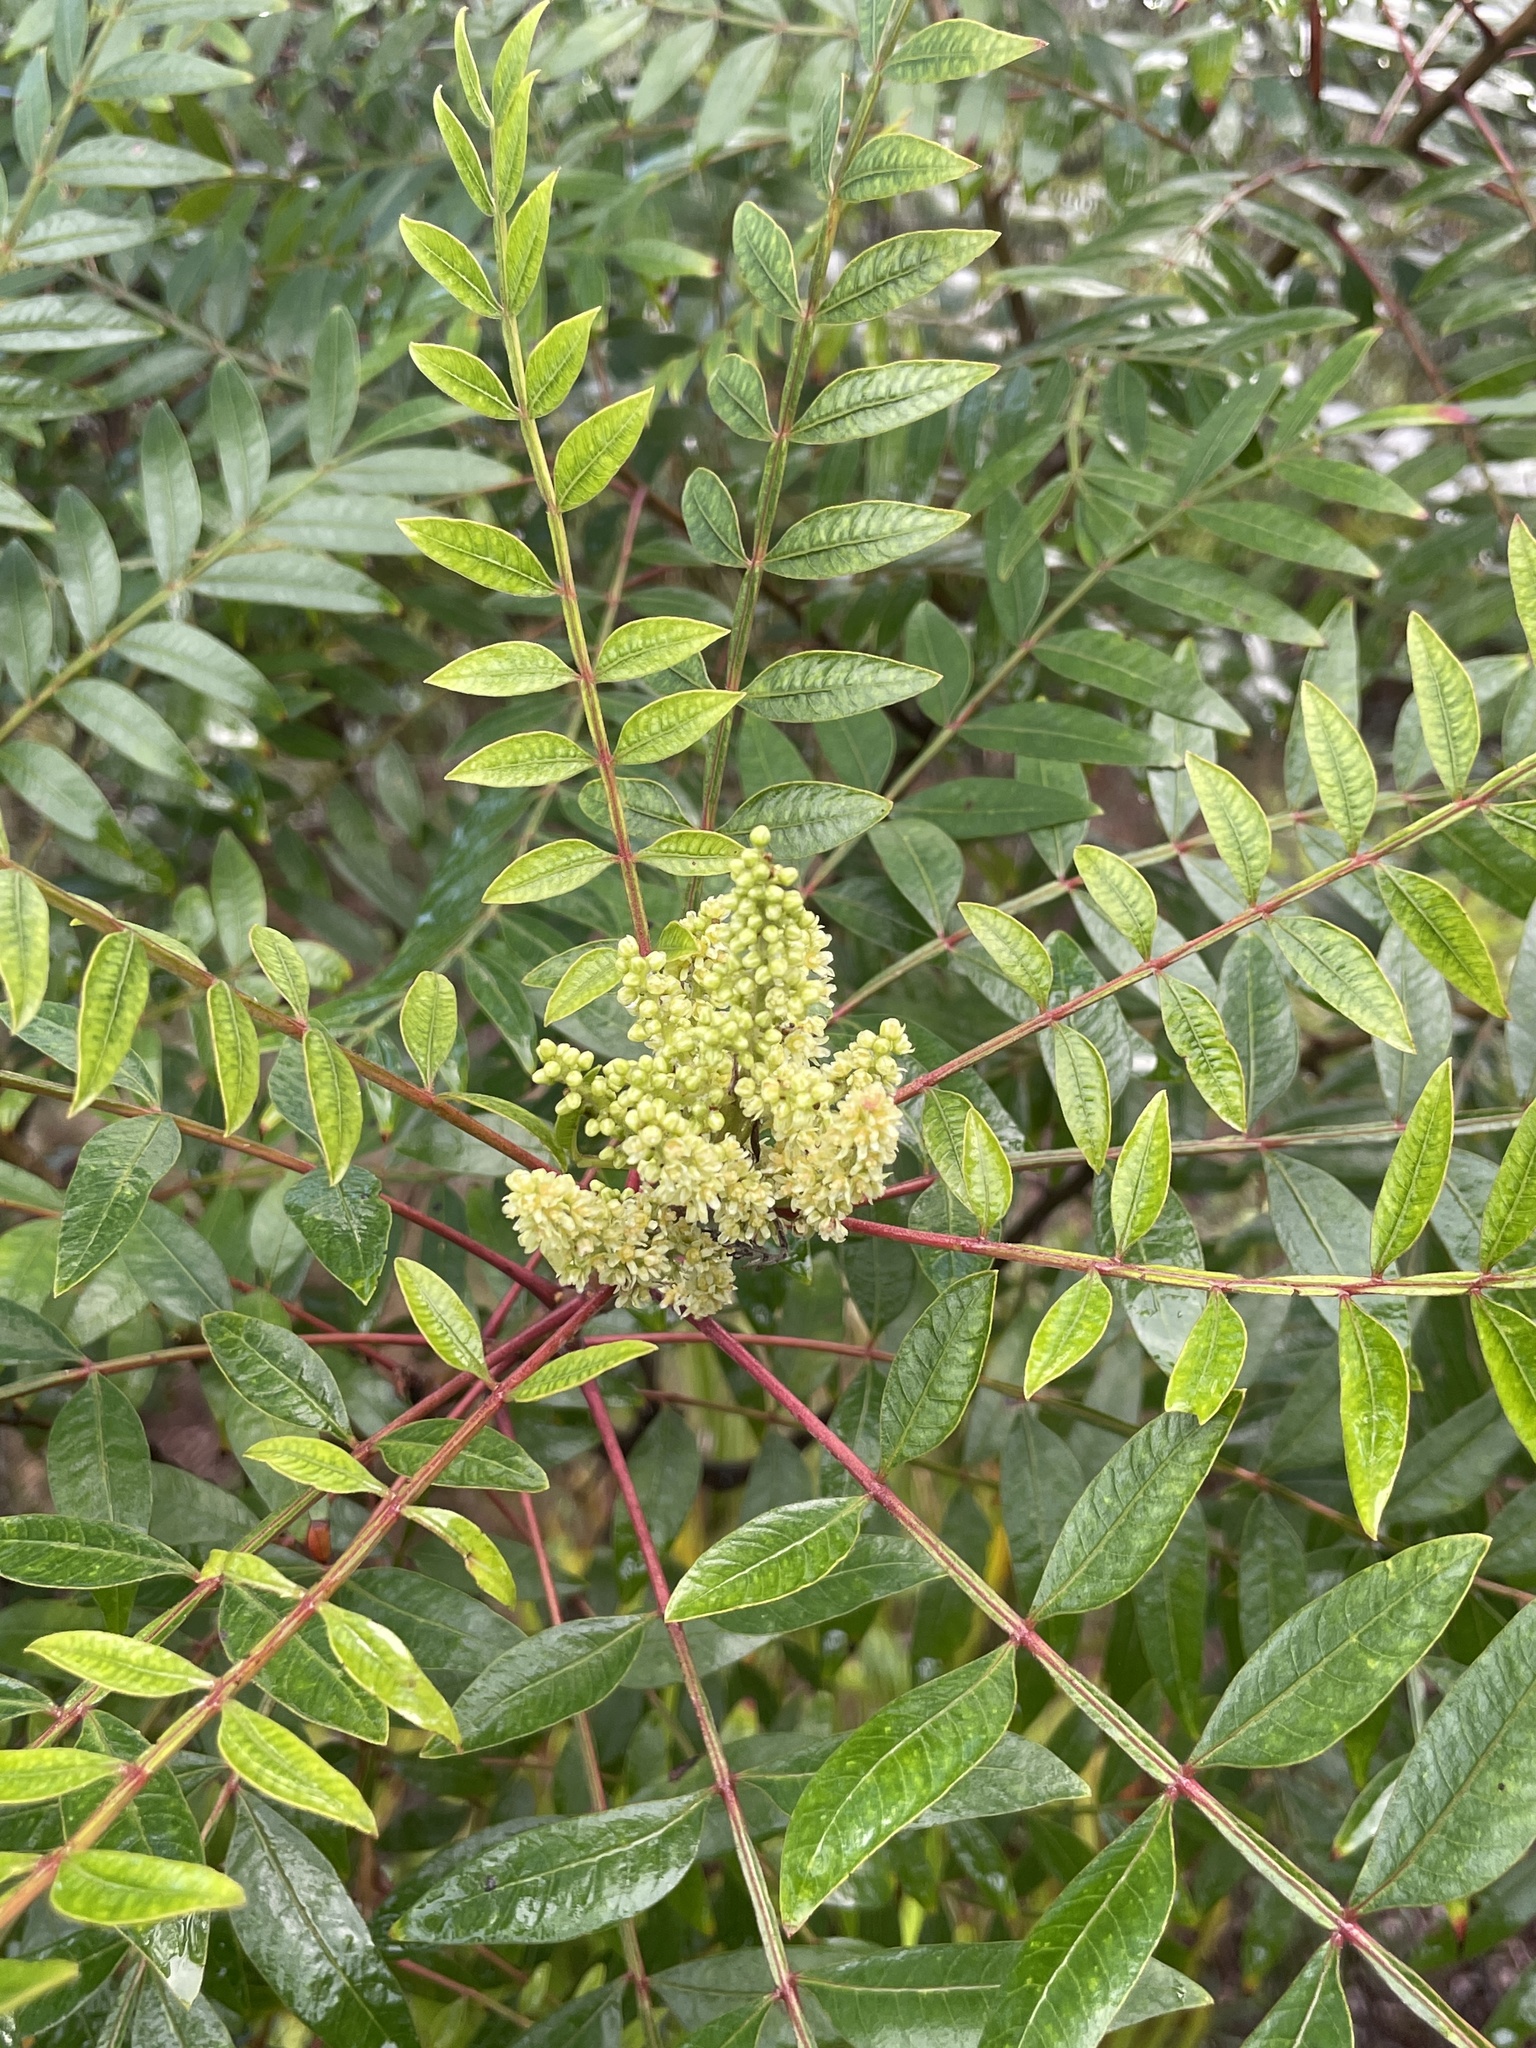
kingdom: Plantae
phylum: Tracheophyta
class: Magnoliopsida
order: Sapindales
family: Anacardiaceae
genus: Rhus
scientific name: Rhus copallina
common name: Shining sumac
